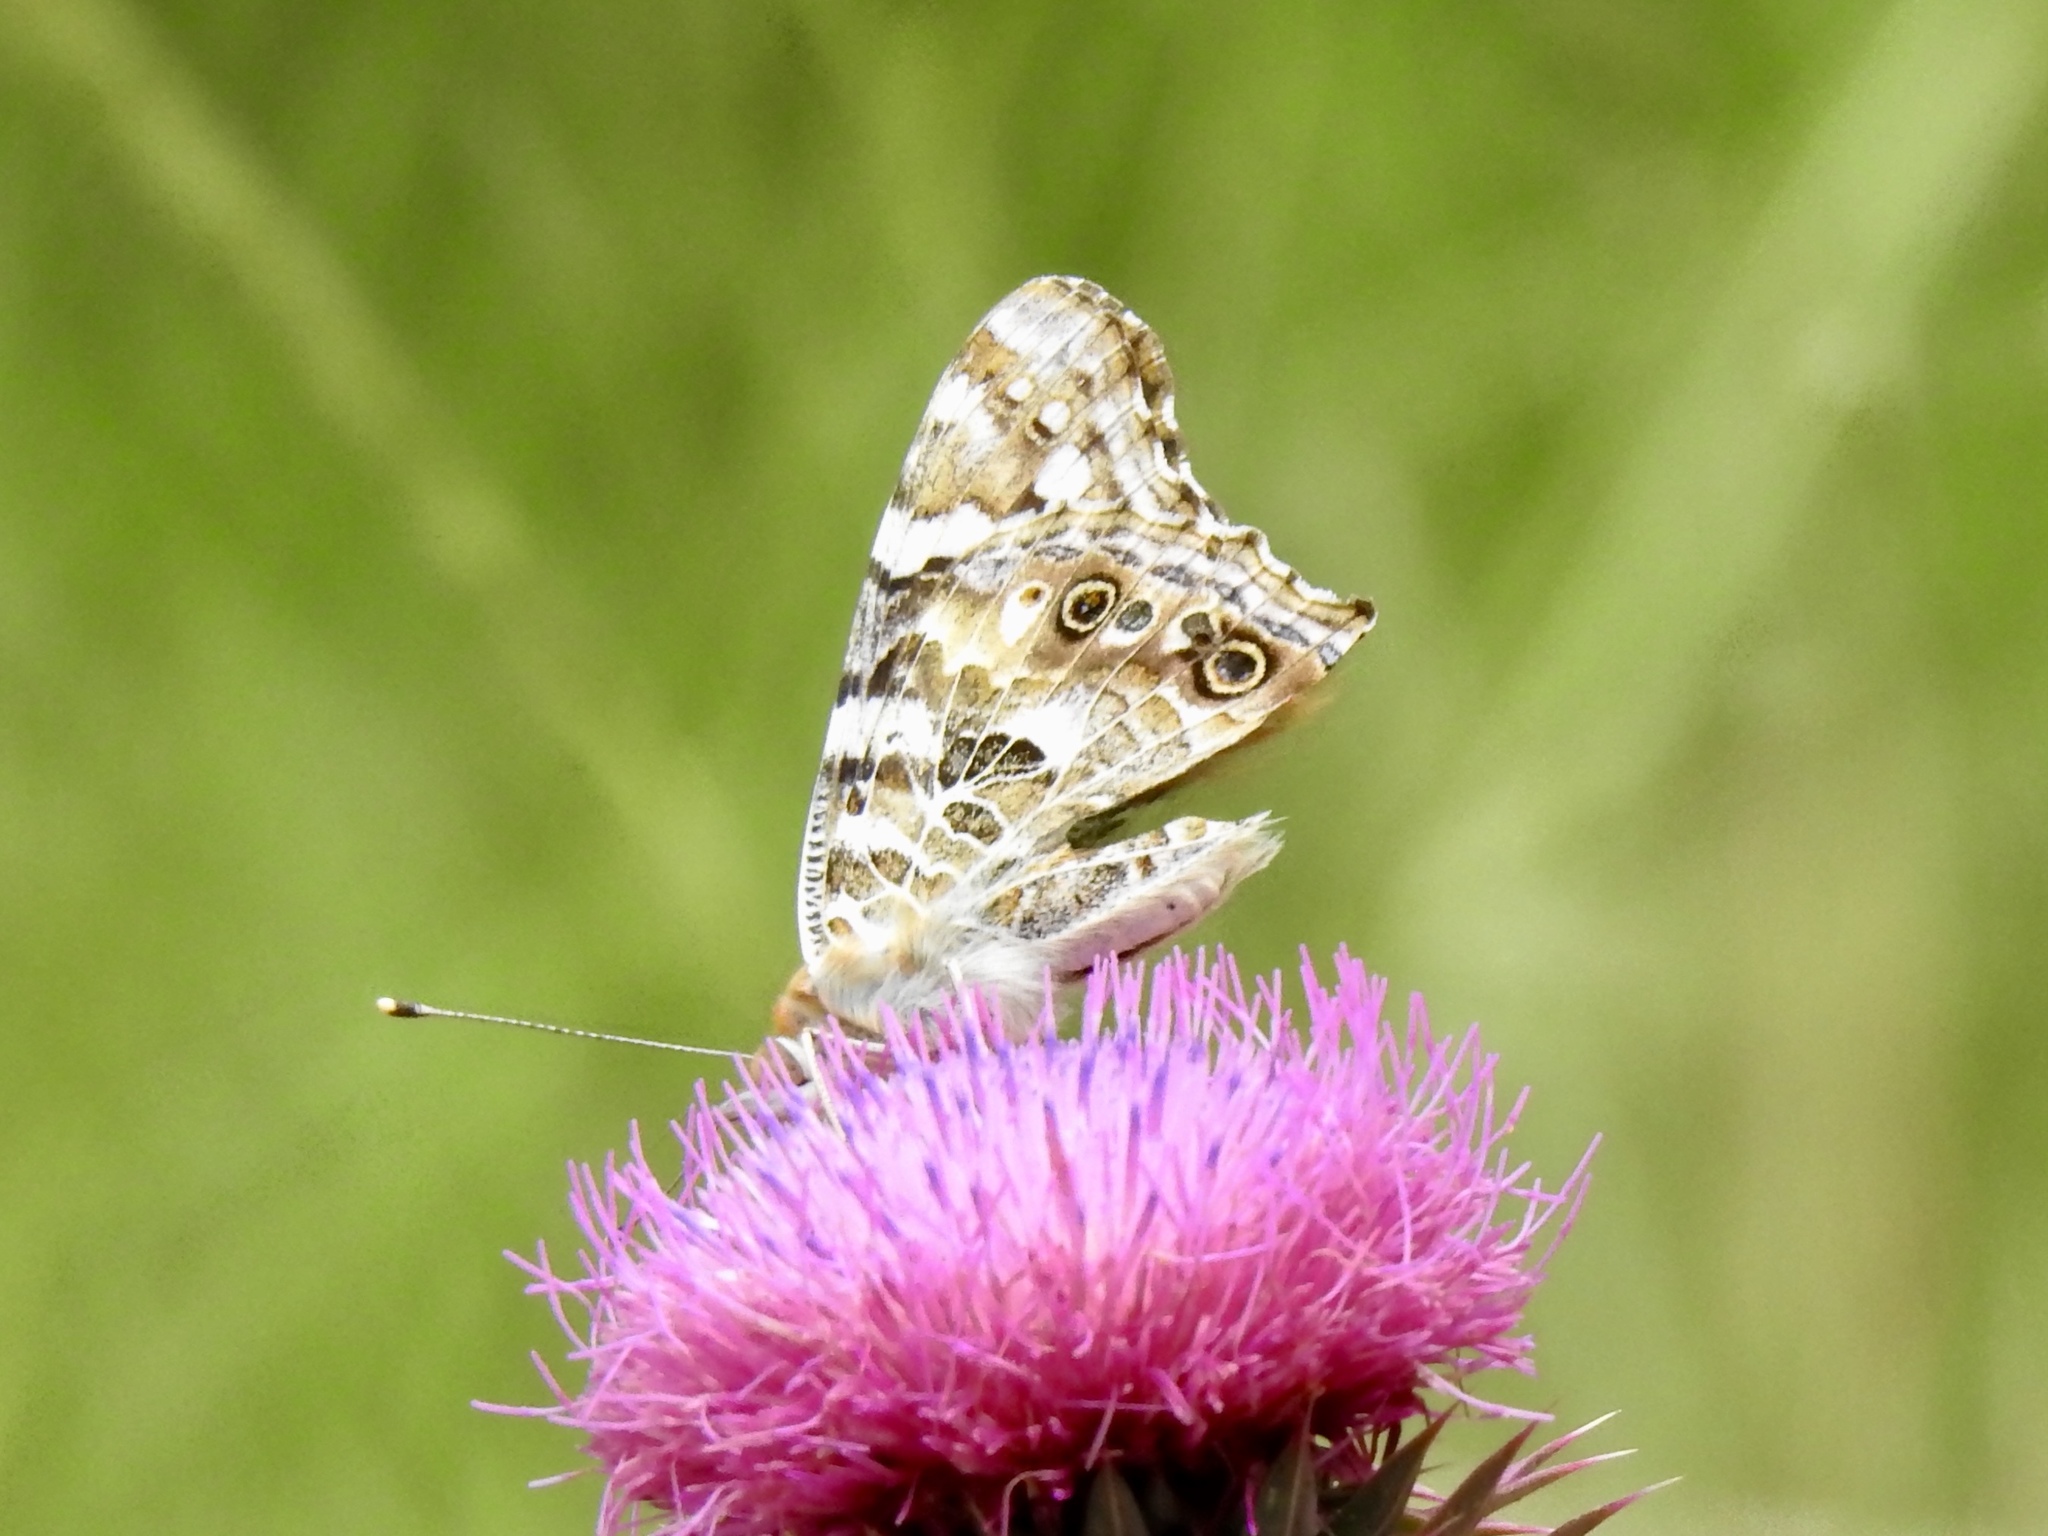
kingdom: Animalia
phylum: Arthropoda
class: Insecta
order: Lepidoptera
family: Nymphalidae
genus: Vanessa
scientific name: Vanessa cardui
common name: Painted lady
